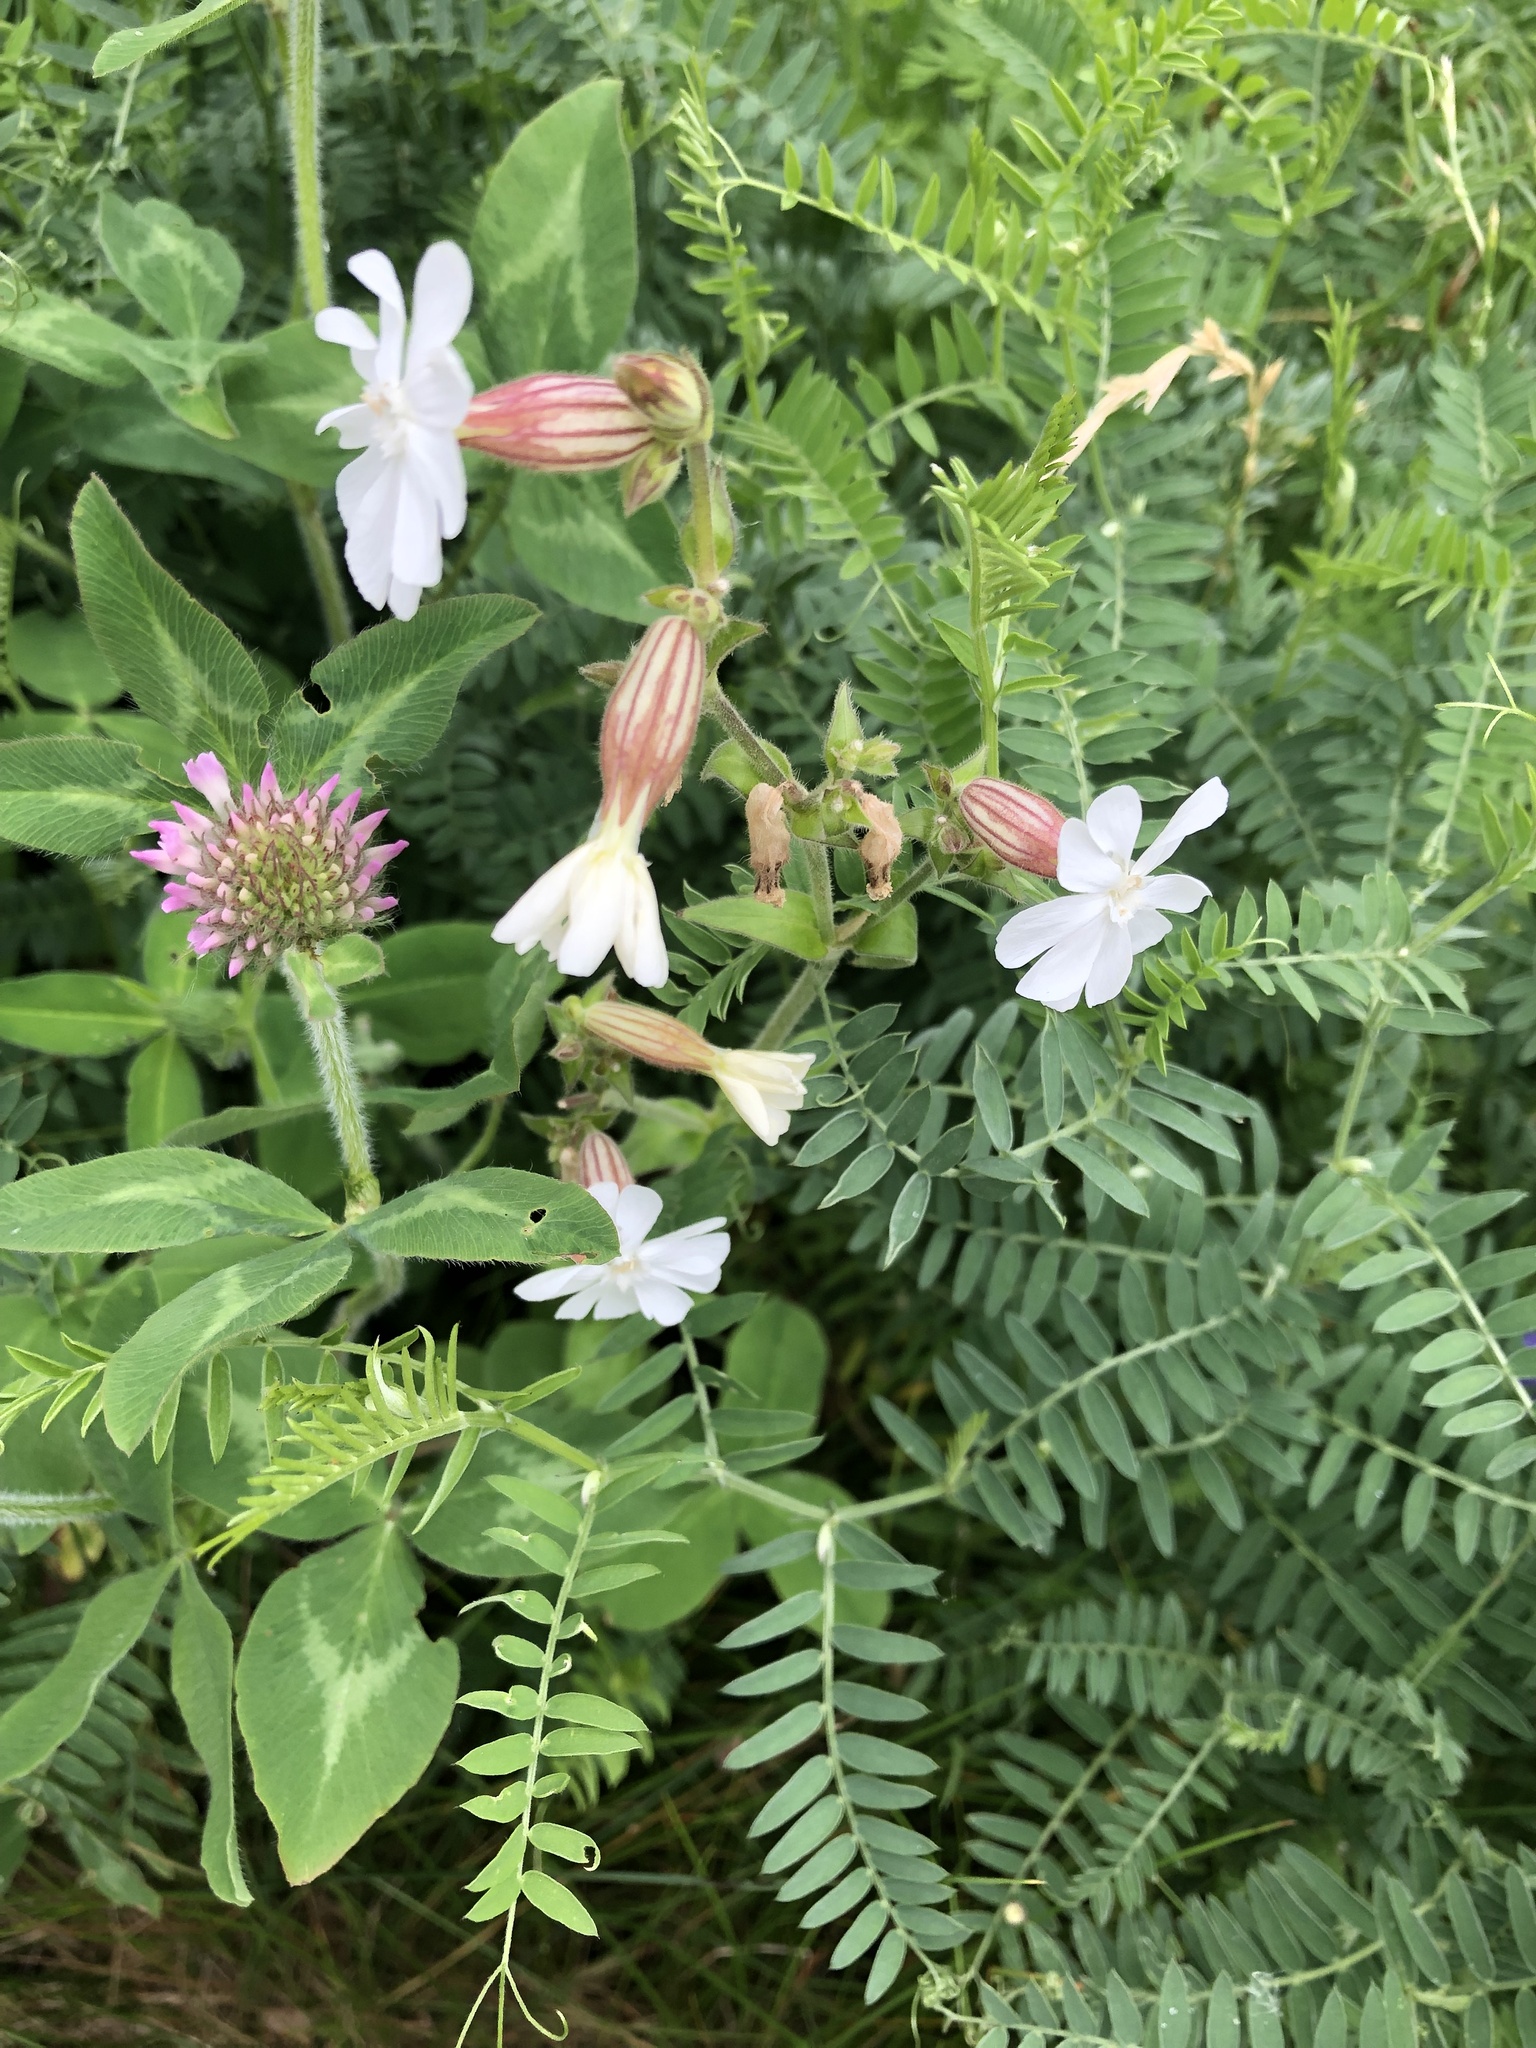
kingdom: Plantae
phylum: Tracheophyta
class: Magnoliopsida
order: Caryophyllales
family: Caryophyllaceae
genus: Silene
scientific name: Silene latifolia
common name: White campion
